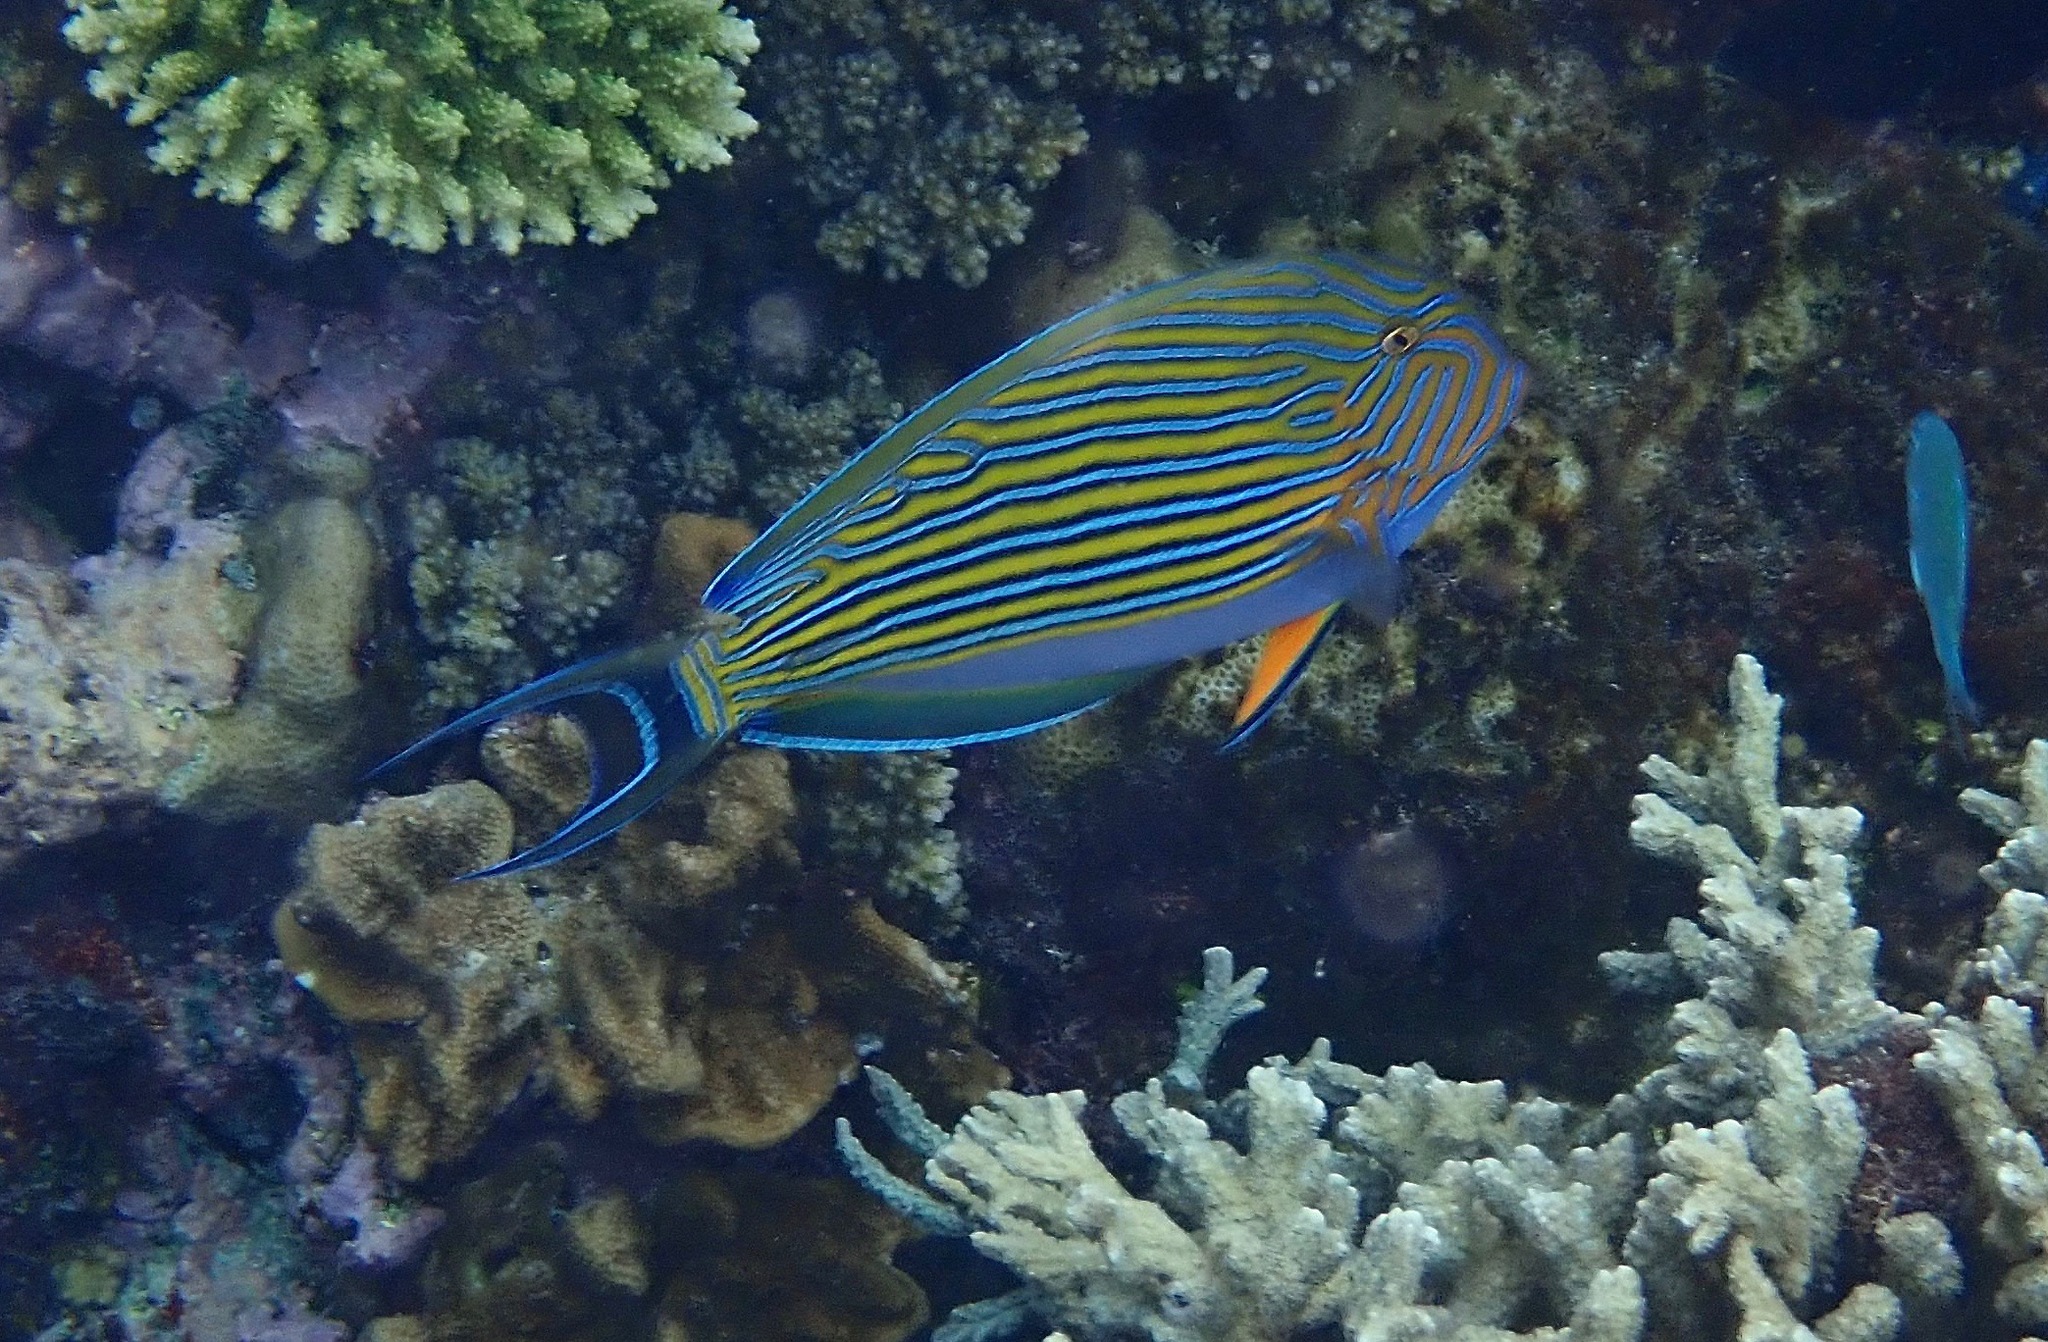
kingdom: Animalia
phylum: Chordata
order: Perciformes
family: Acanthuridae
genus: Acanthurus
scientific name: Acanthurus lineatus
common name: Striped surgeonfish
